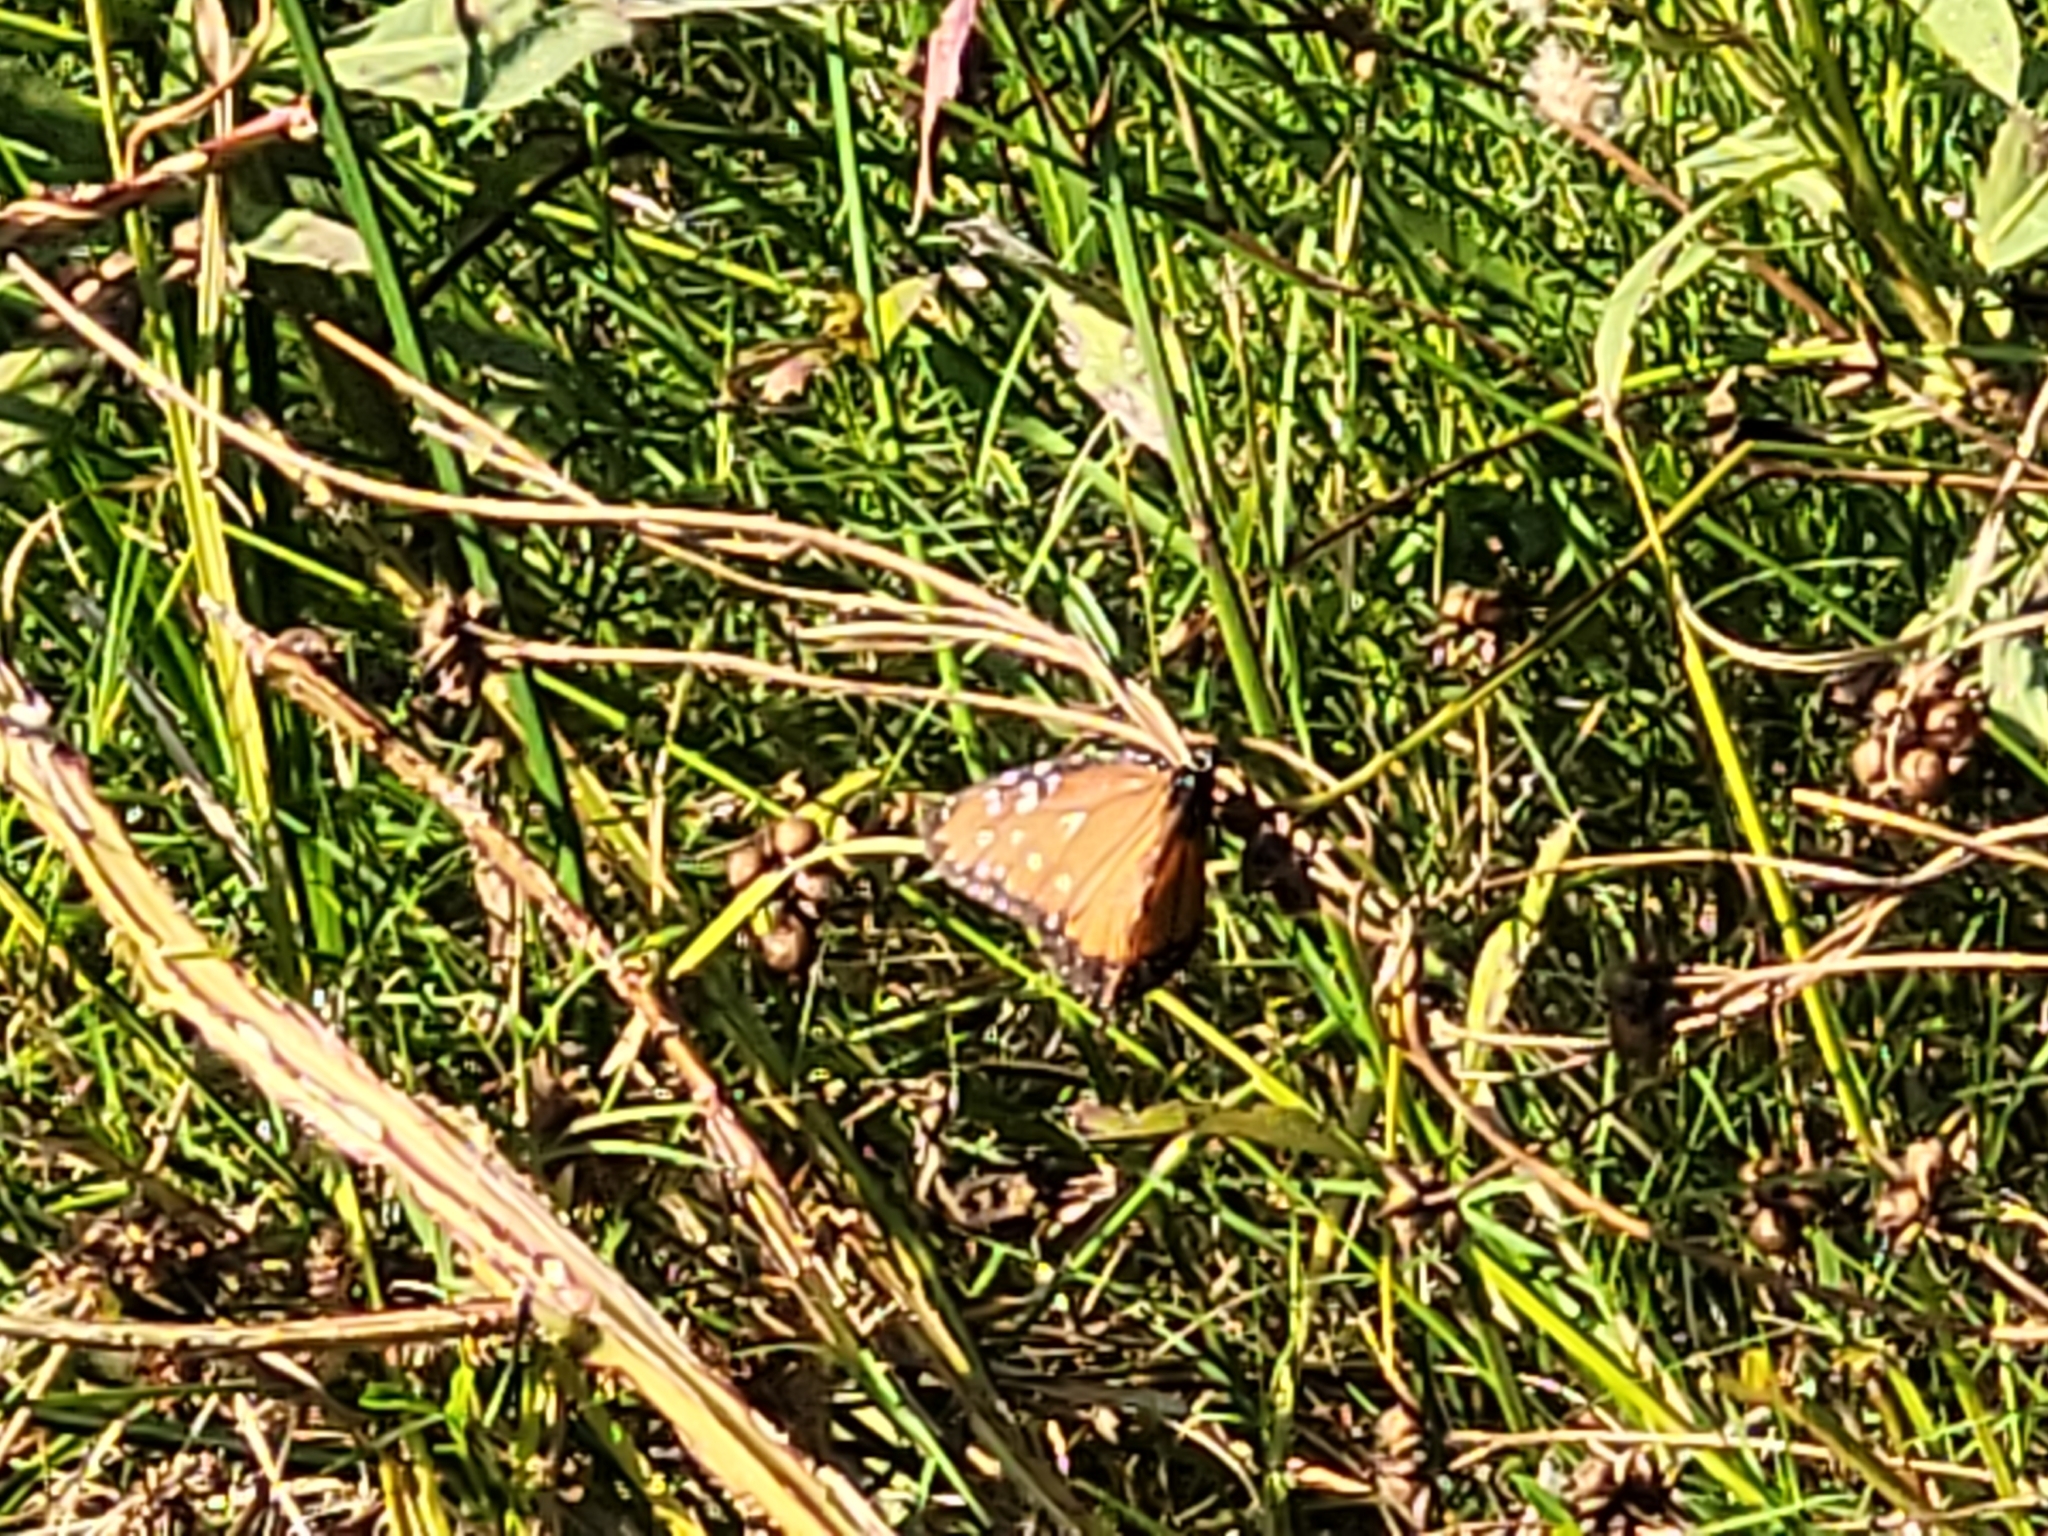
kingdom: Animalia
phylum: Arthropoda
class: Insecta
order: Lepidoptera
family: Nymphalidae
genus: Danaus
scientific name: Danaus gilippus
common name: Queen
